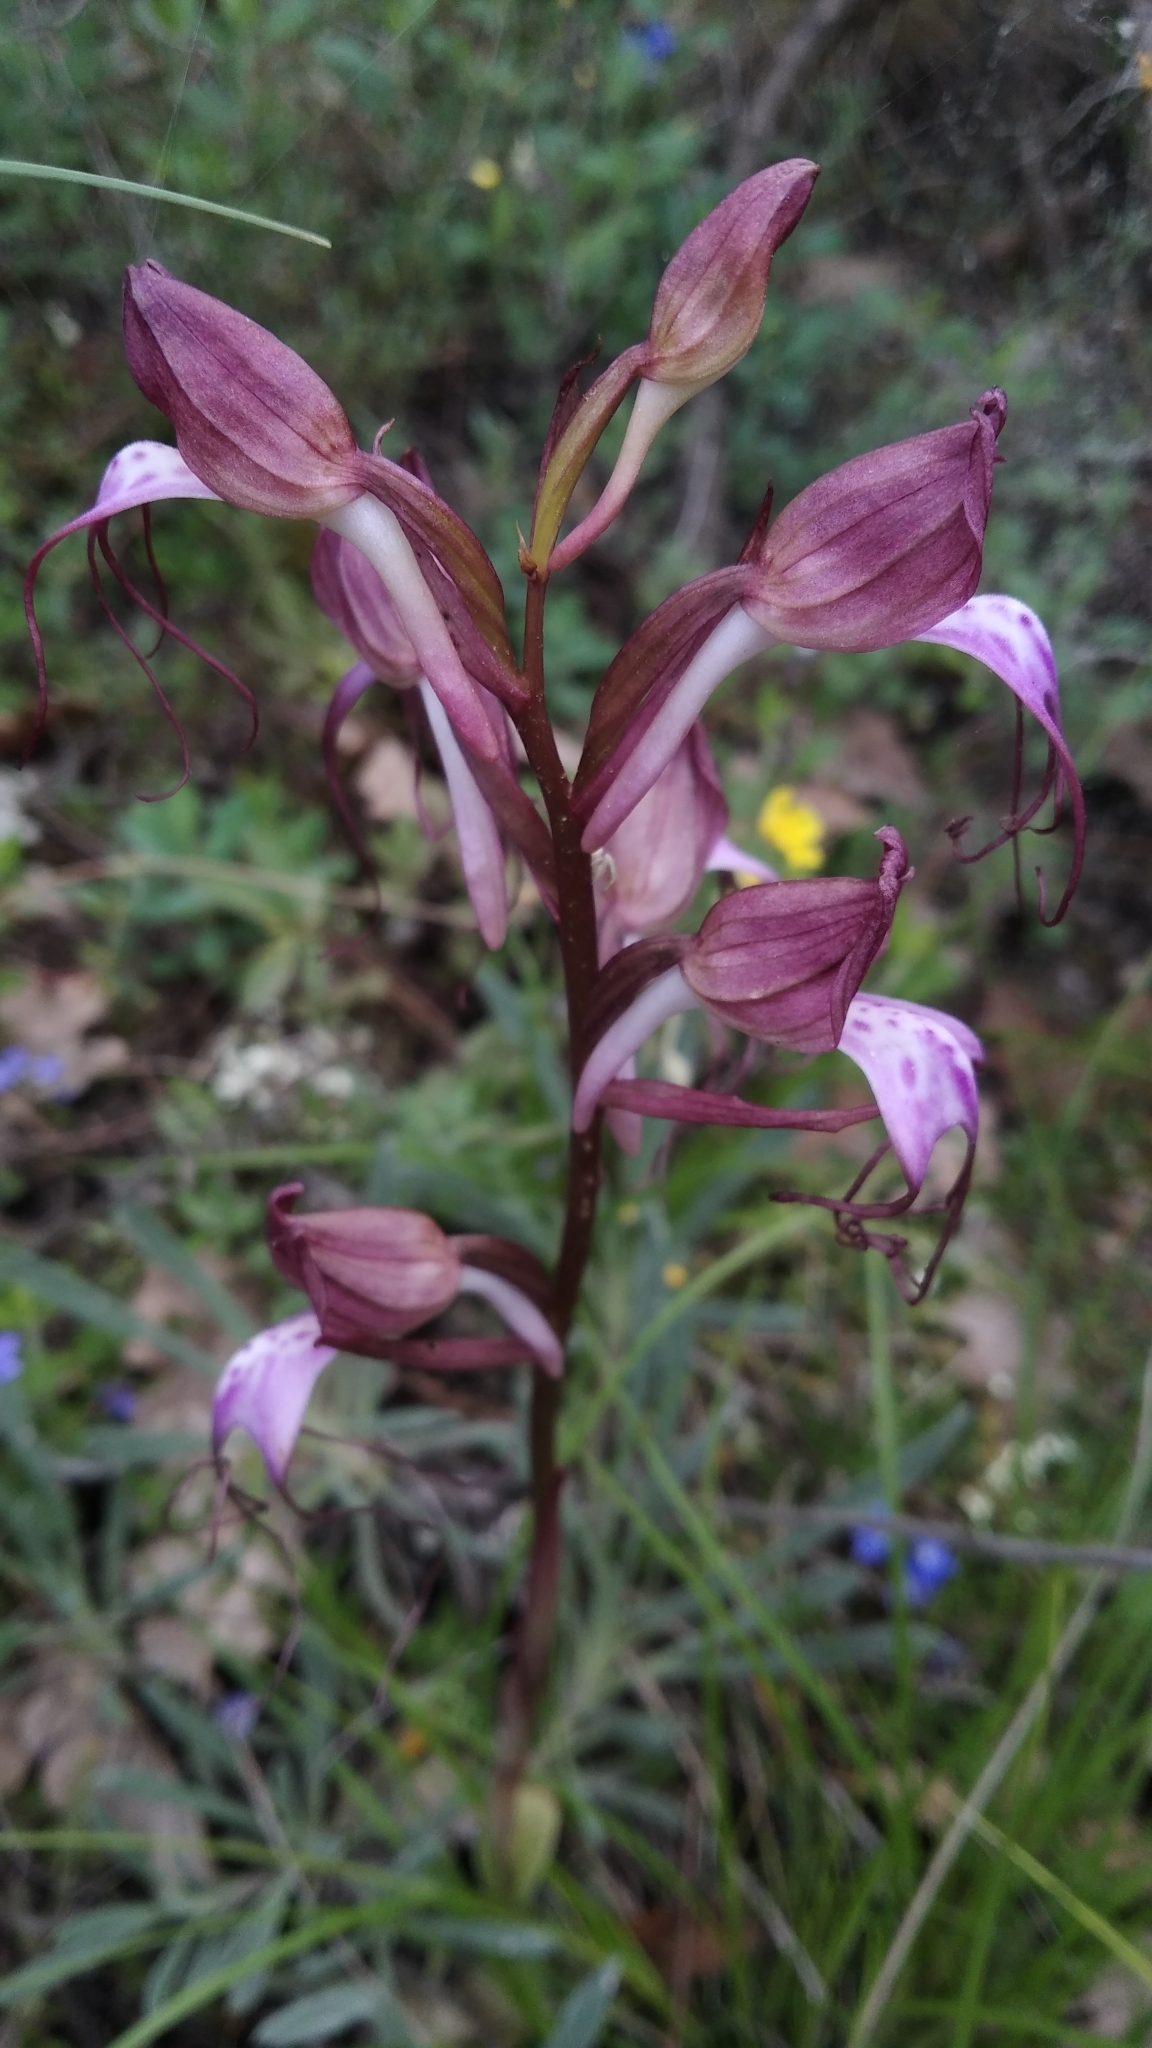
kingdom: Plantae
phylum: Tracheophyta
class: Liliopsida
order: Asparagales
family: Orchidaceae
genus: Himantoglossum
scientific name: Himantoglossum comperianum
